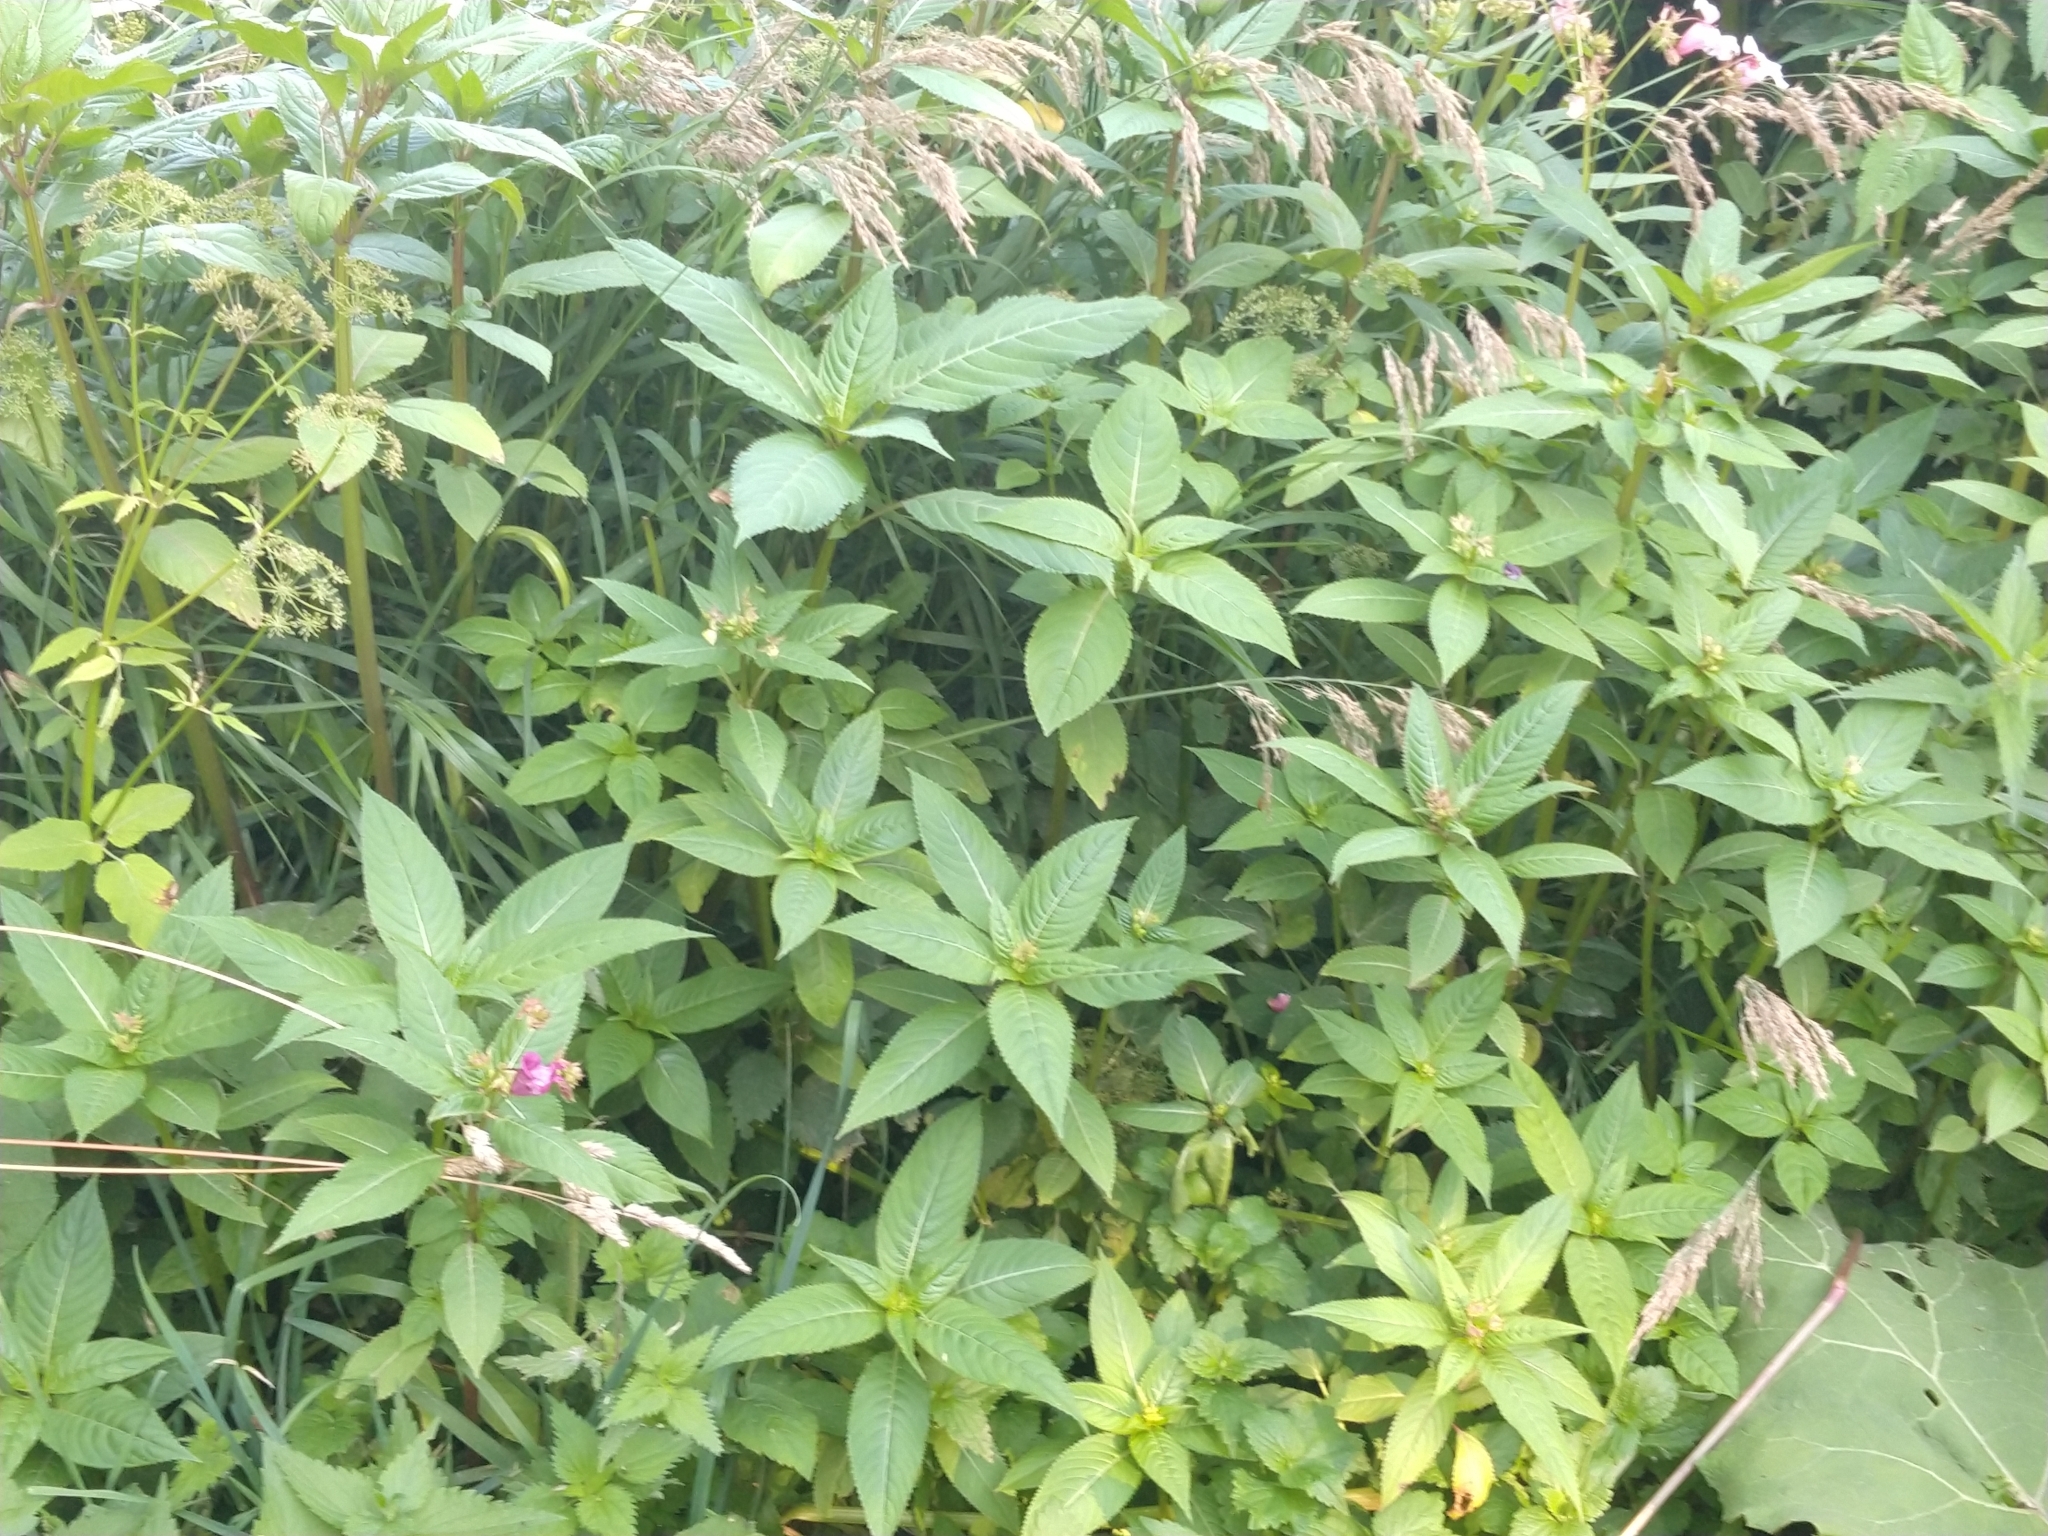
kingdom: Plantae
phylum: Tracheophyta
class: Magnoliopsida
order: Ericales
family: Balsaminaceae
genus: Impatiens
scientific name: Impatiens glandulifera
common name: Himalayan balsam
